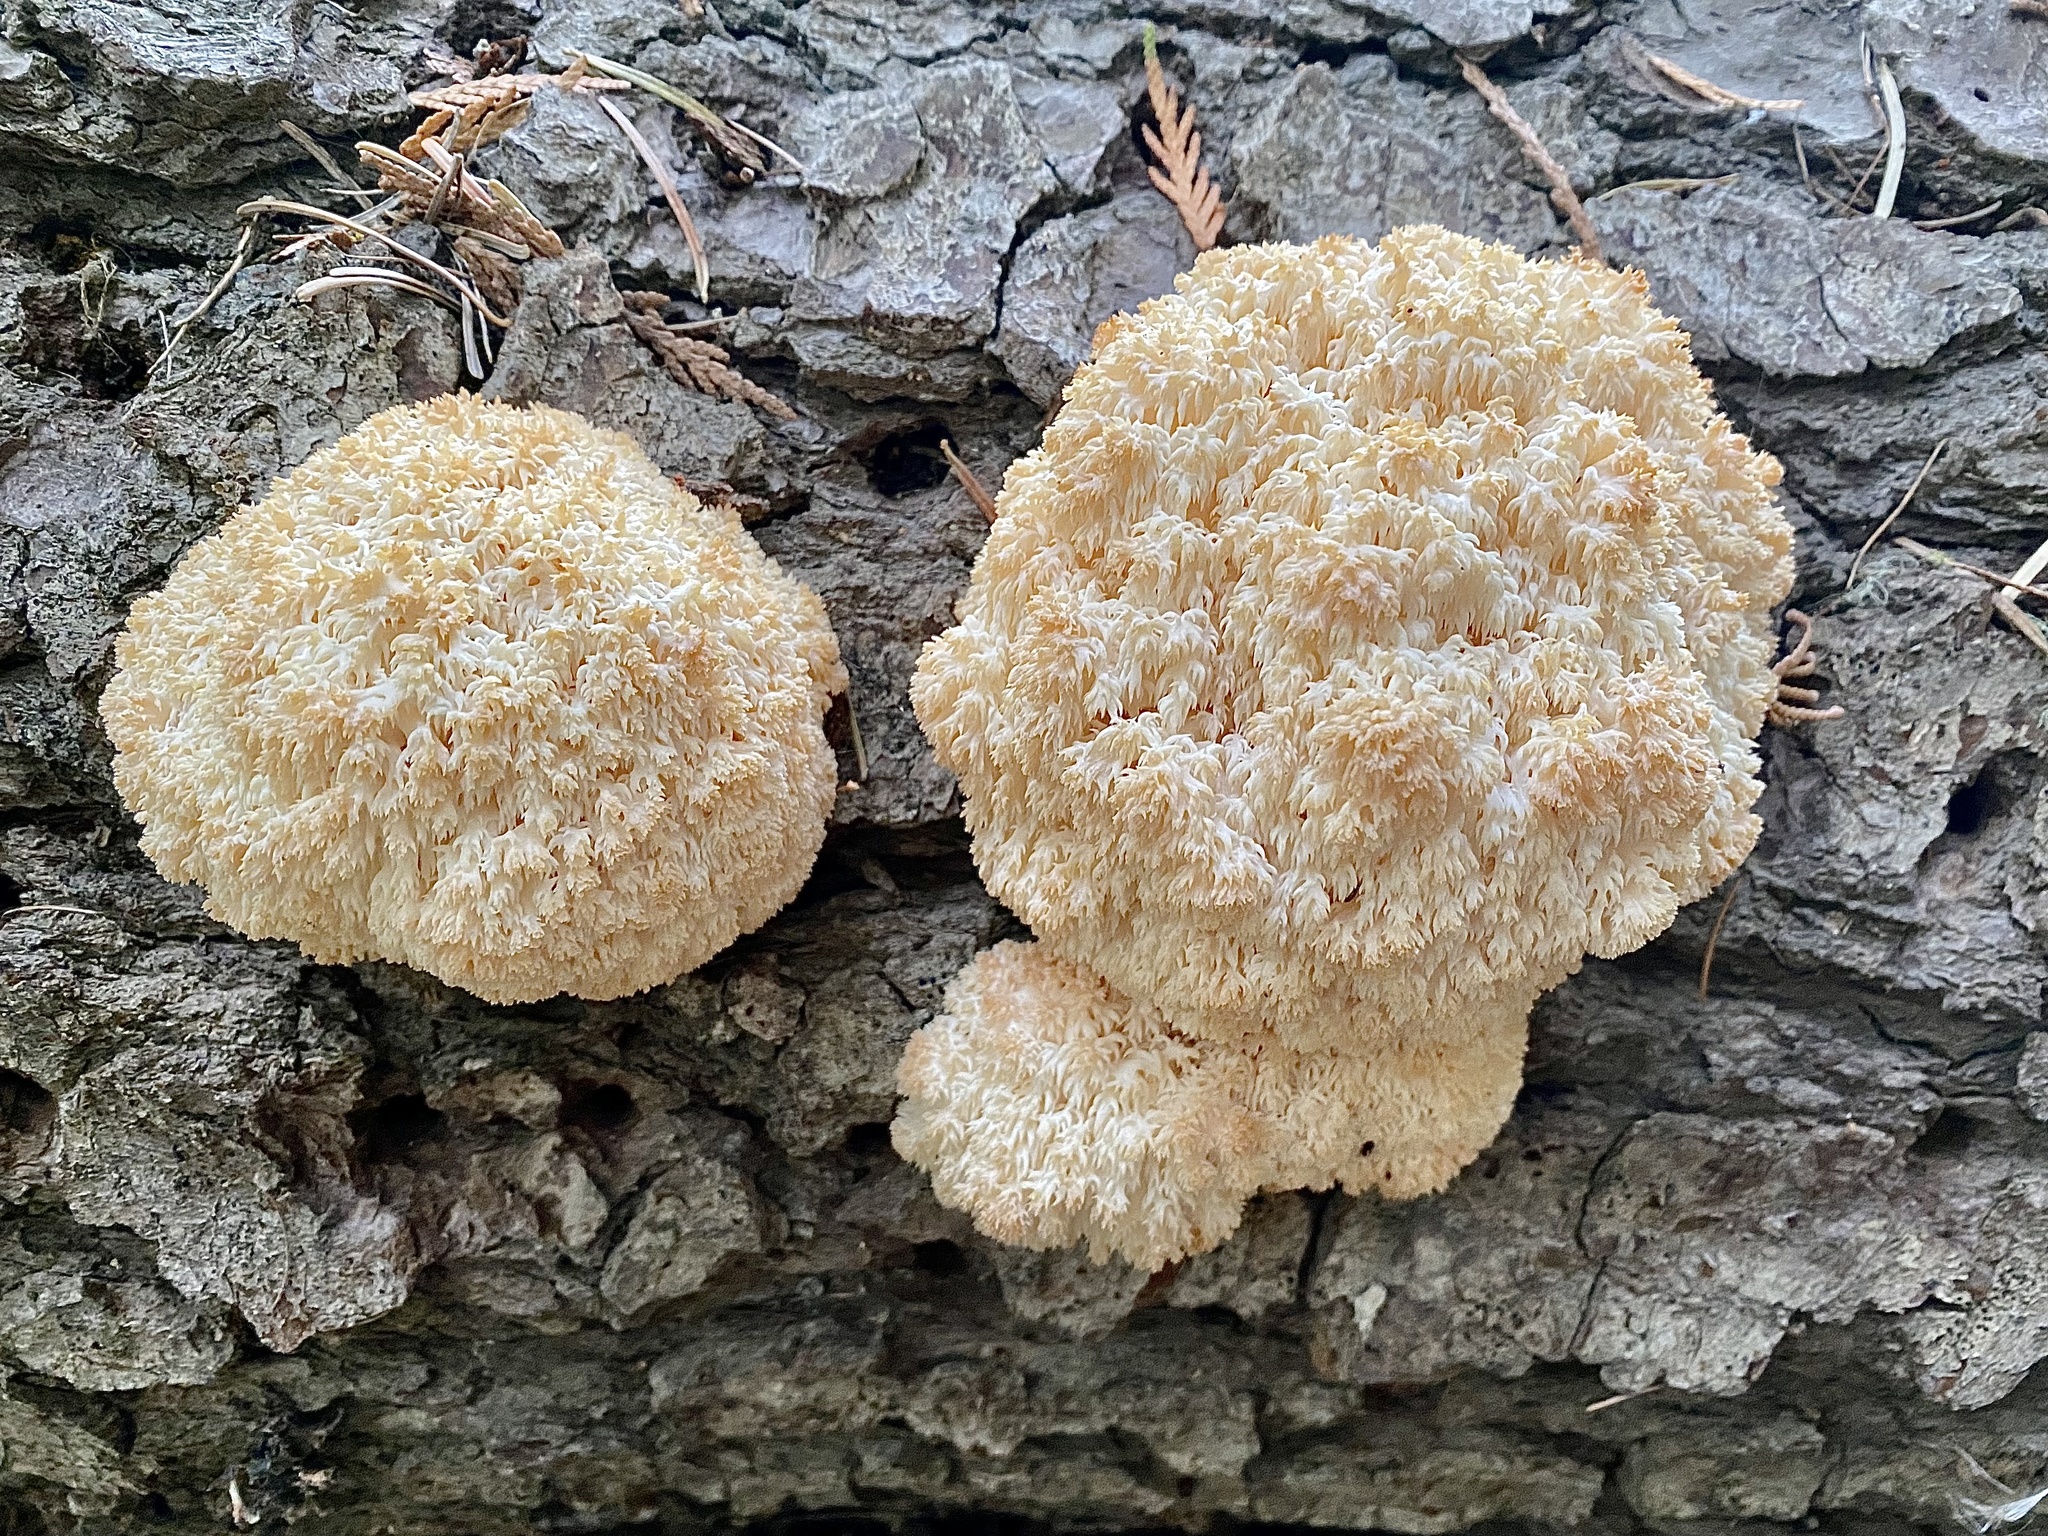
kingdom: Fungi
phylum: Basidiomycota
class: Agaricomycetes
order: Russulales
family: Hericiaceae
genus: Hericium
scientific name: Hericium abietis
